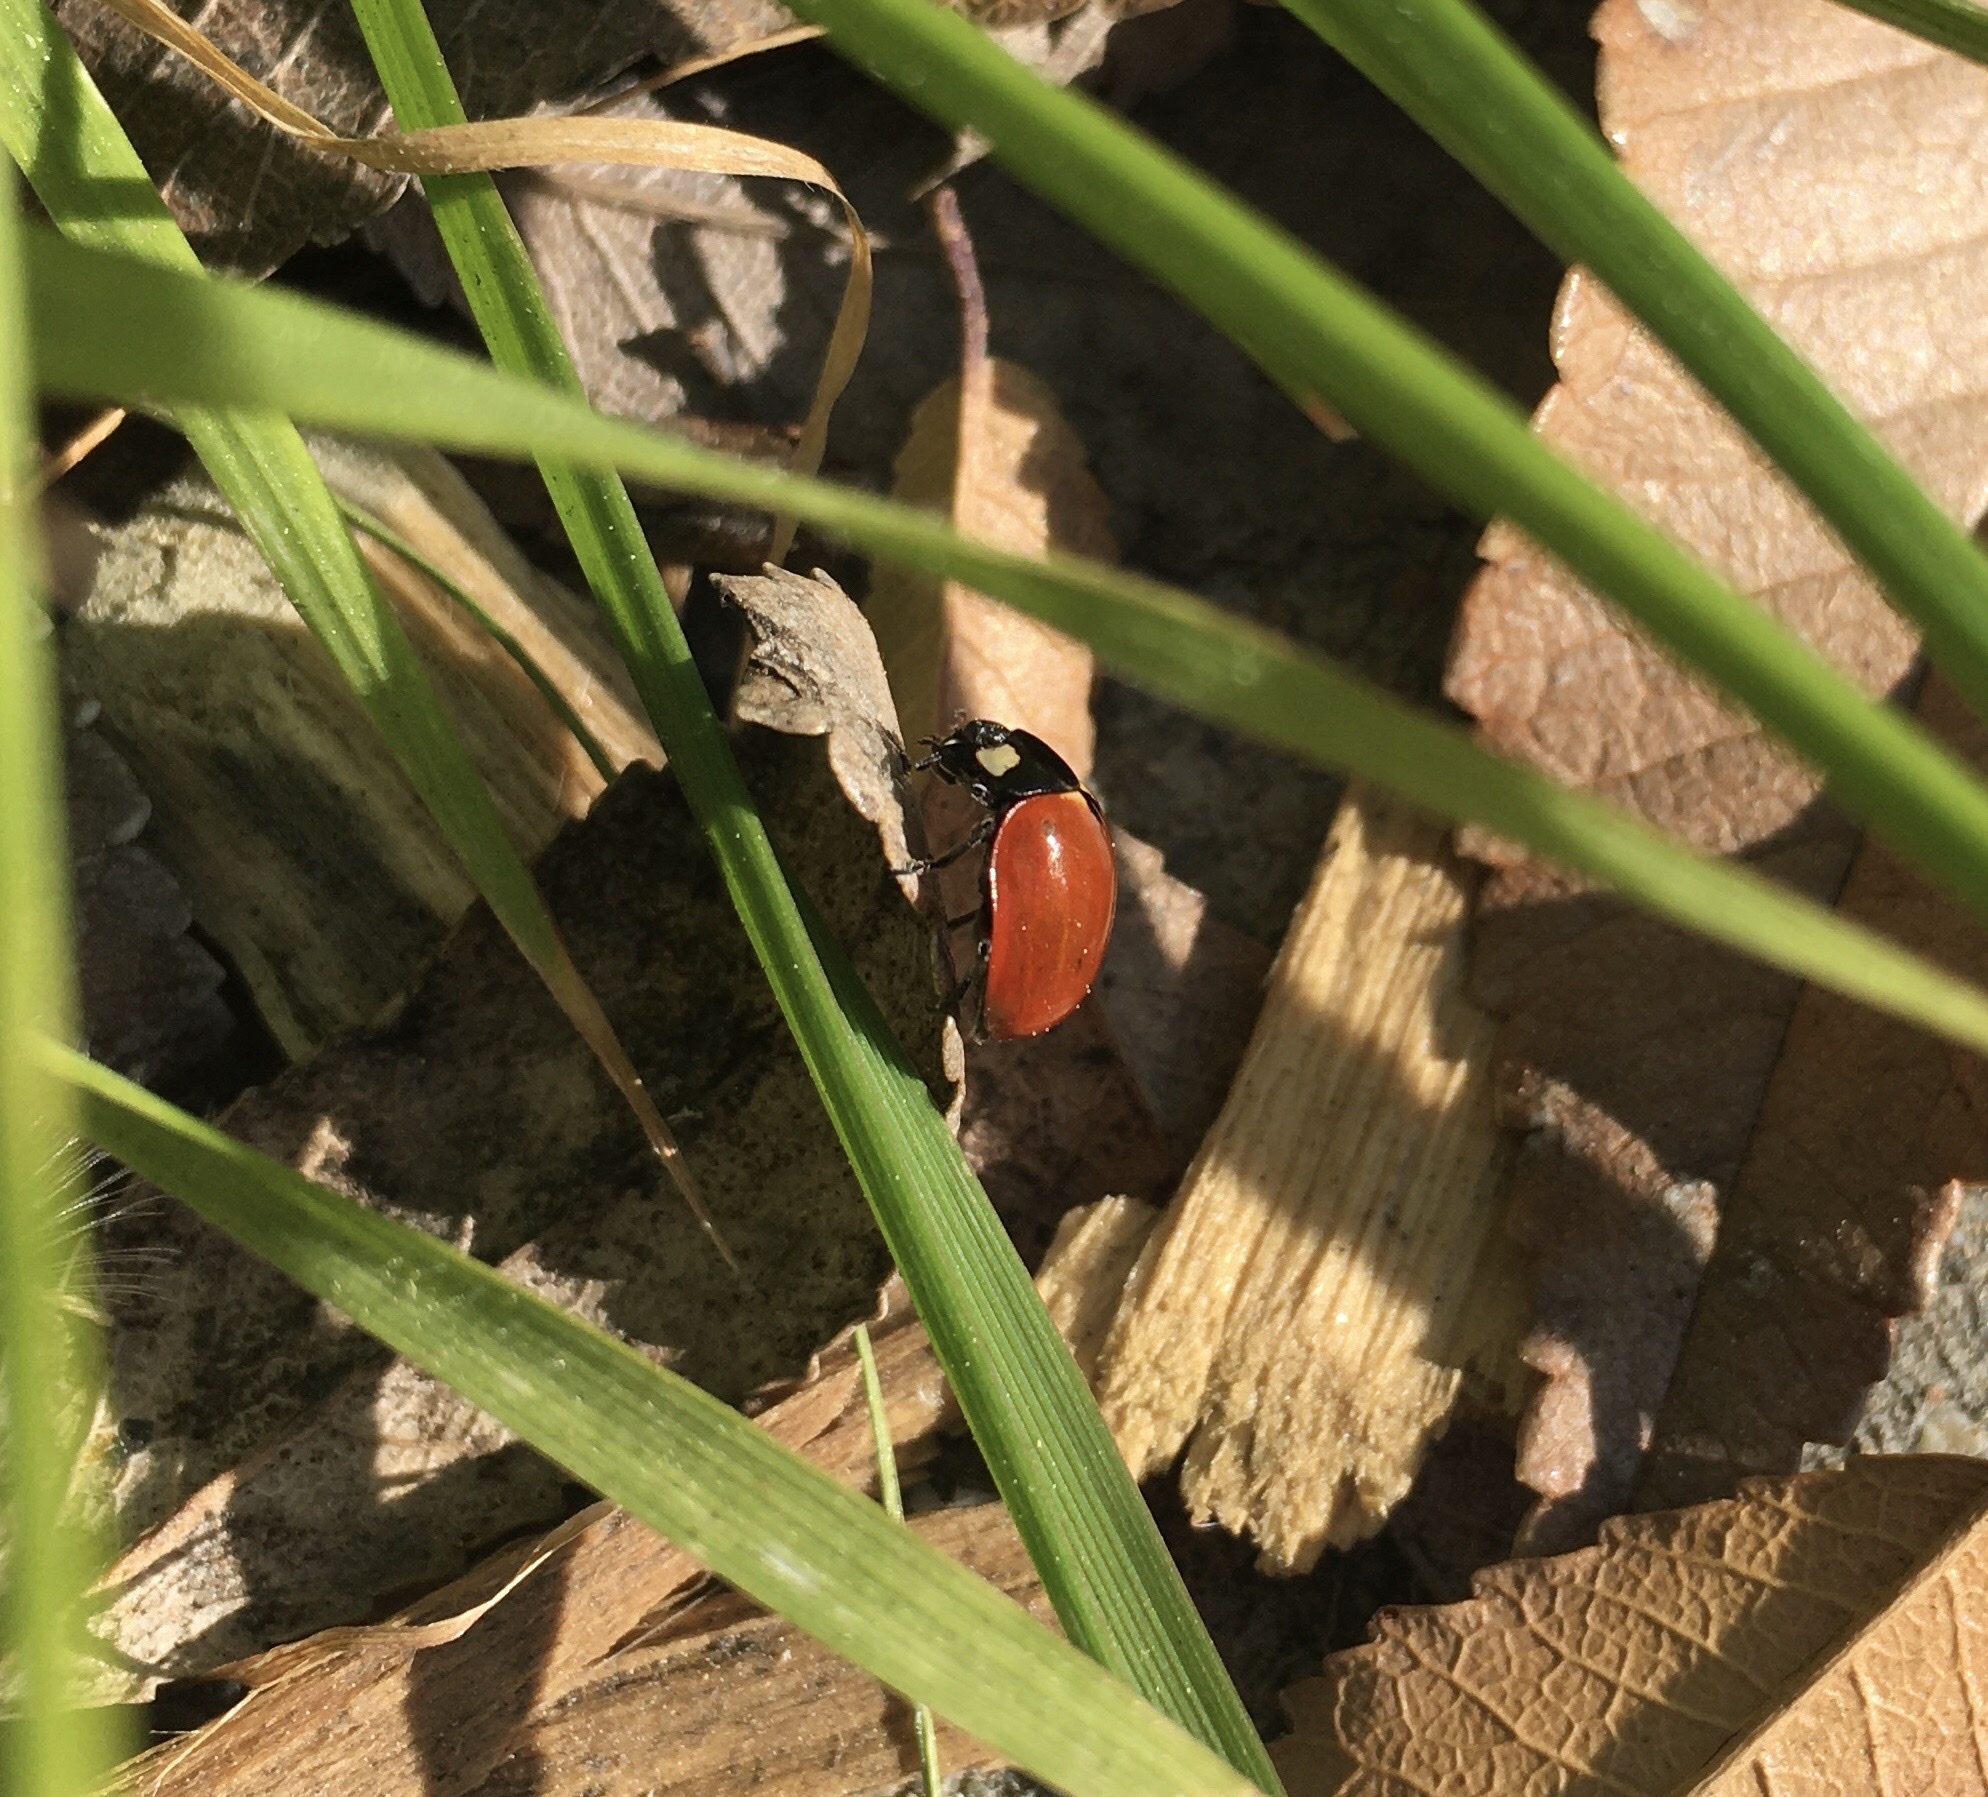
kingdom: Animalia
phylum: Arthropoda
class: Insecta
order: Coleoptera
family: Coccinellidae
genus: Coccinella
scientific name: Coccinella californica
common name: Lady beetle
